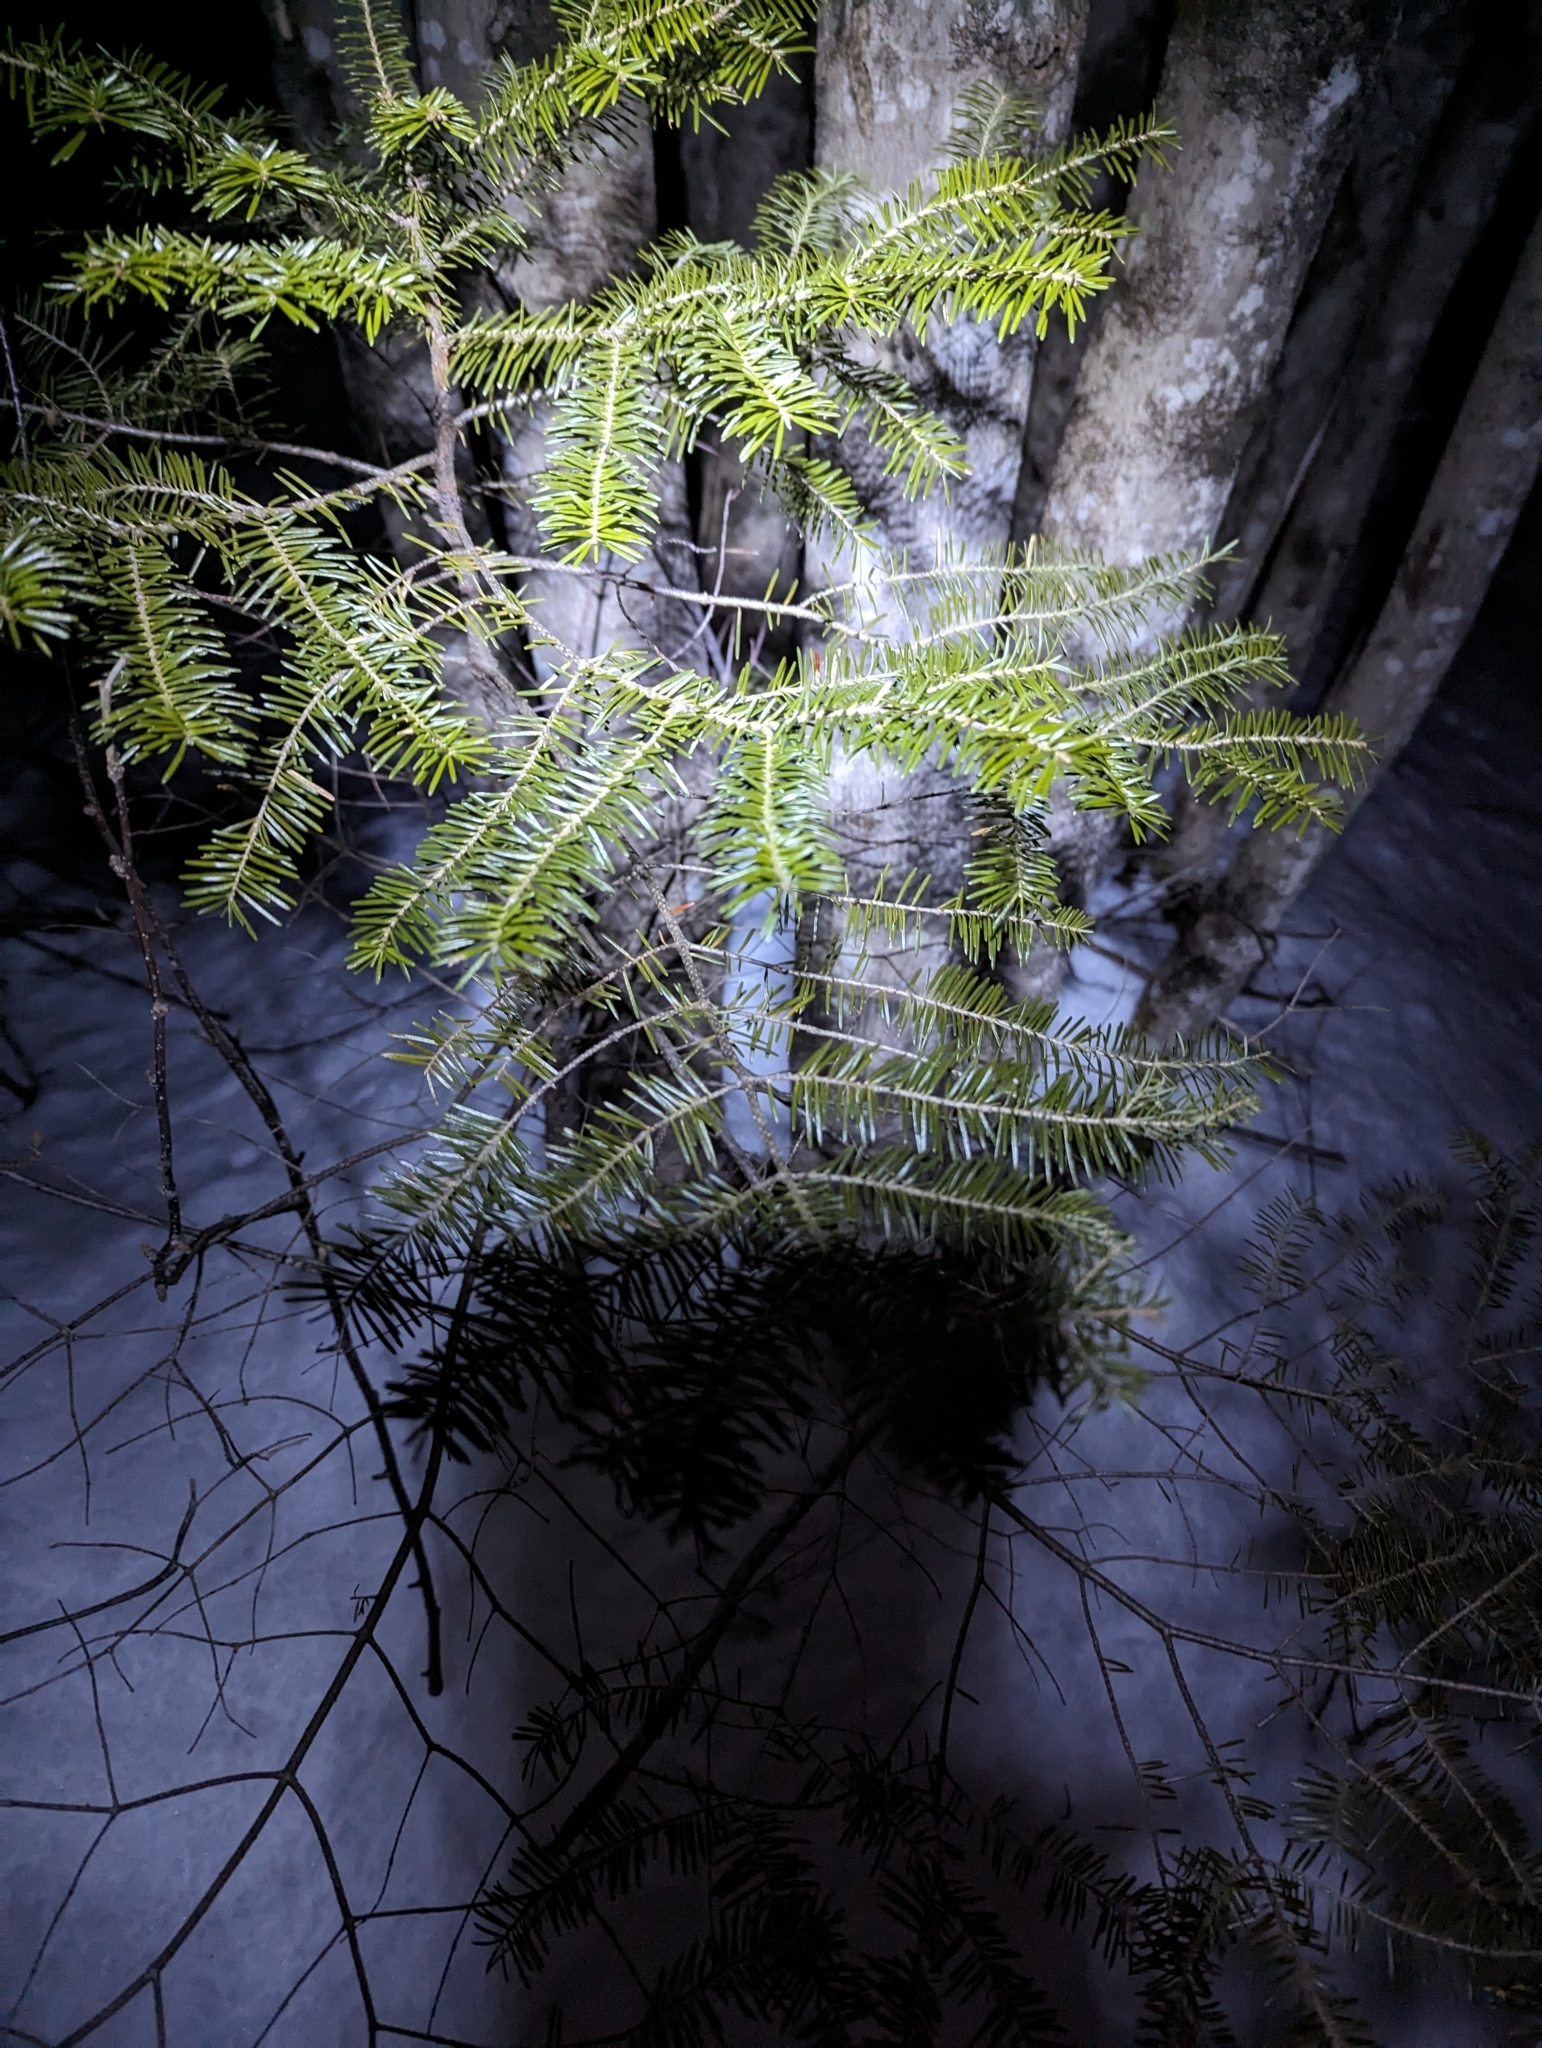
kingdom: Plantae
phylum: Tracheophyta
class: Pinopsida
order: Pinales
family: Pinaceae
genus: Abies
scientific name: Abies balsamea
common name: Balsam fir
